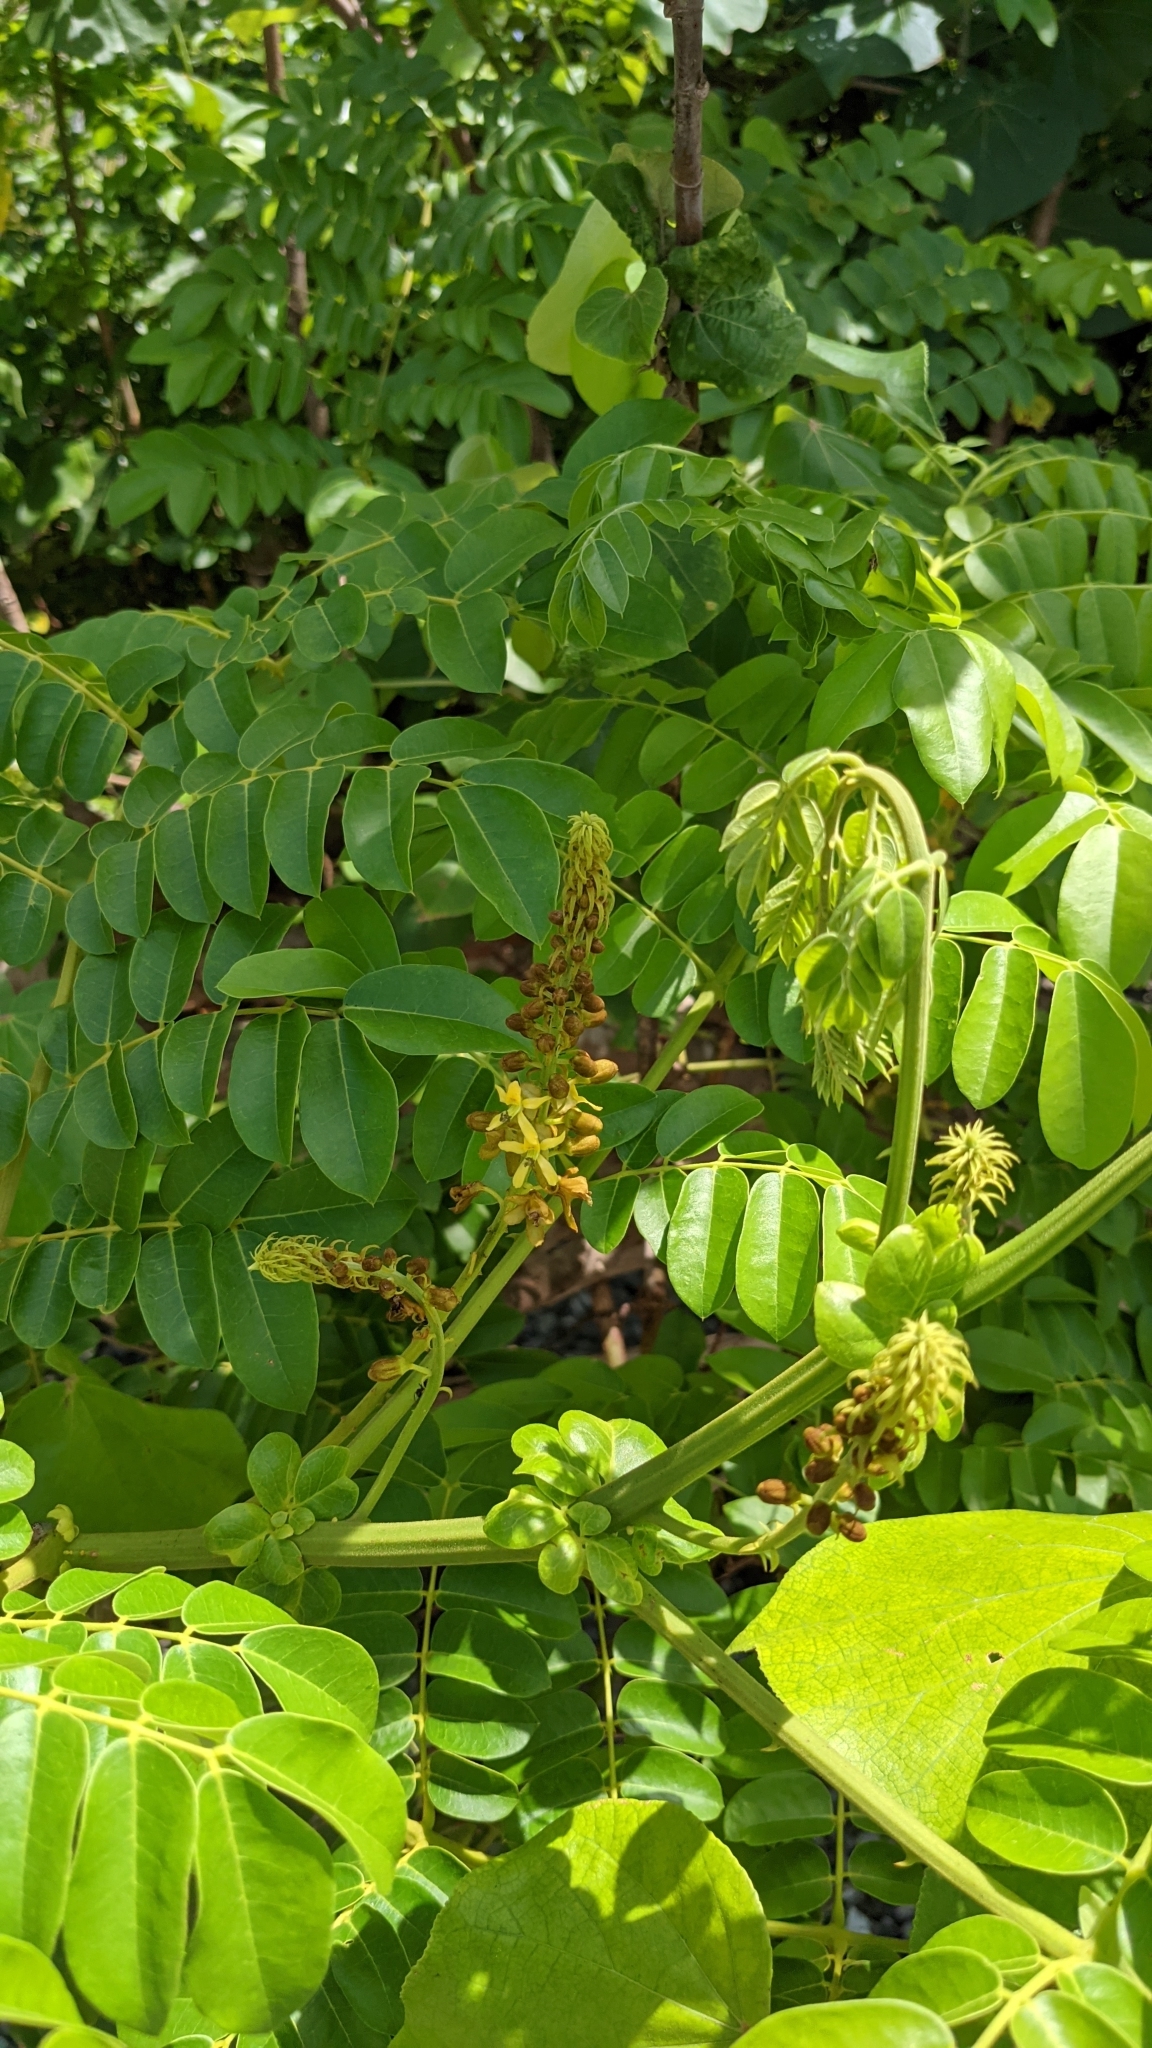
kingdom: Plantae
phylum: Tracheophyta
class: Magnoliopsida
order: Fabales
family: Fabaceae
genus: Guilandina
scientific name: Guilandina bonduc
